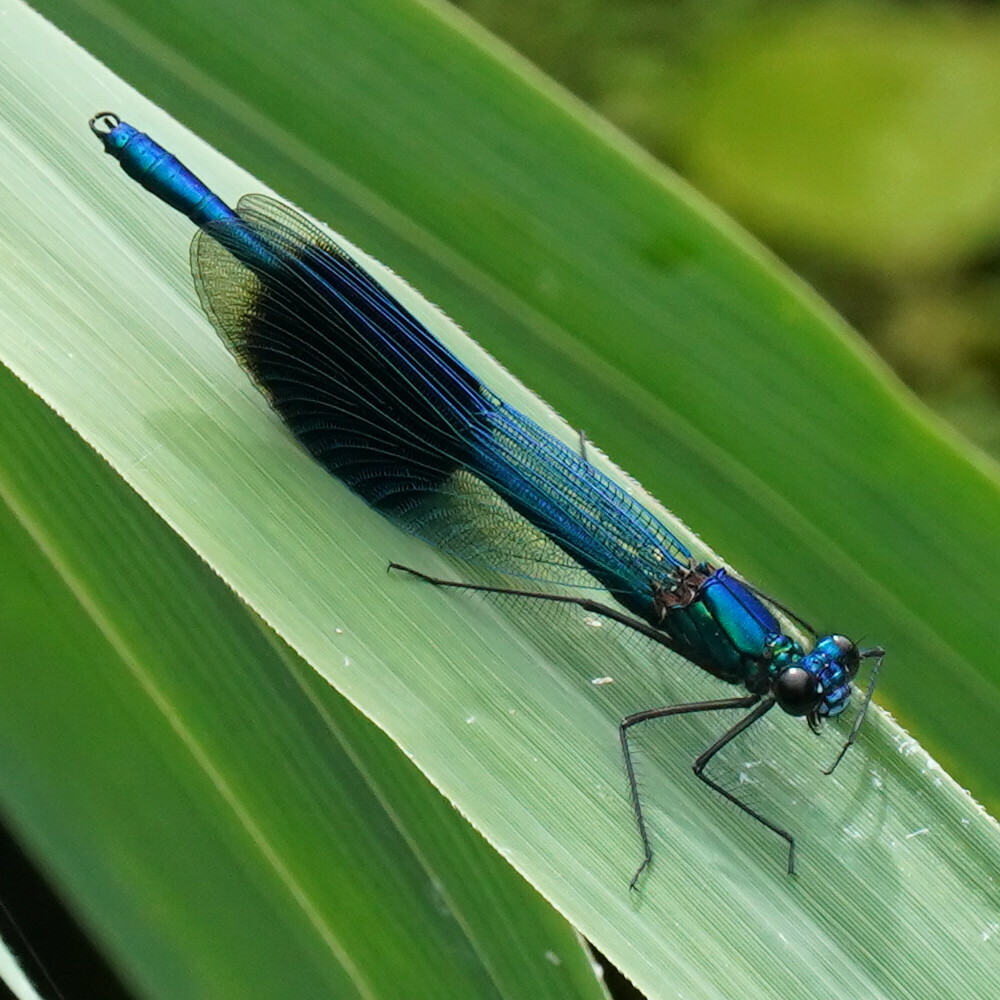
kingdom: Animalia
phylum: Arthropoda
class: Insecta
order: Odonata
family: Calopterygidae
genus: Calopteryx
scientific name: Calopteryx splendens
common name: Banded demoiselle
